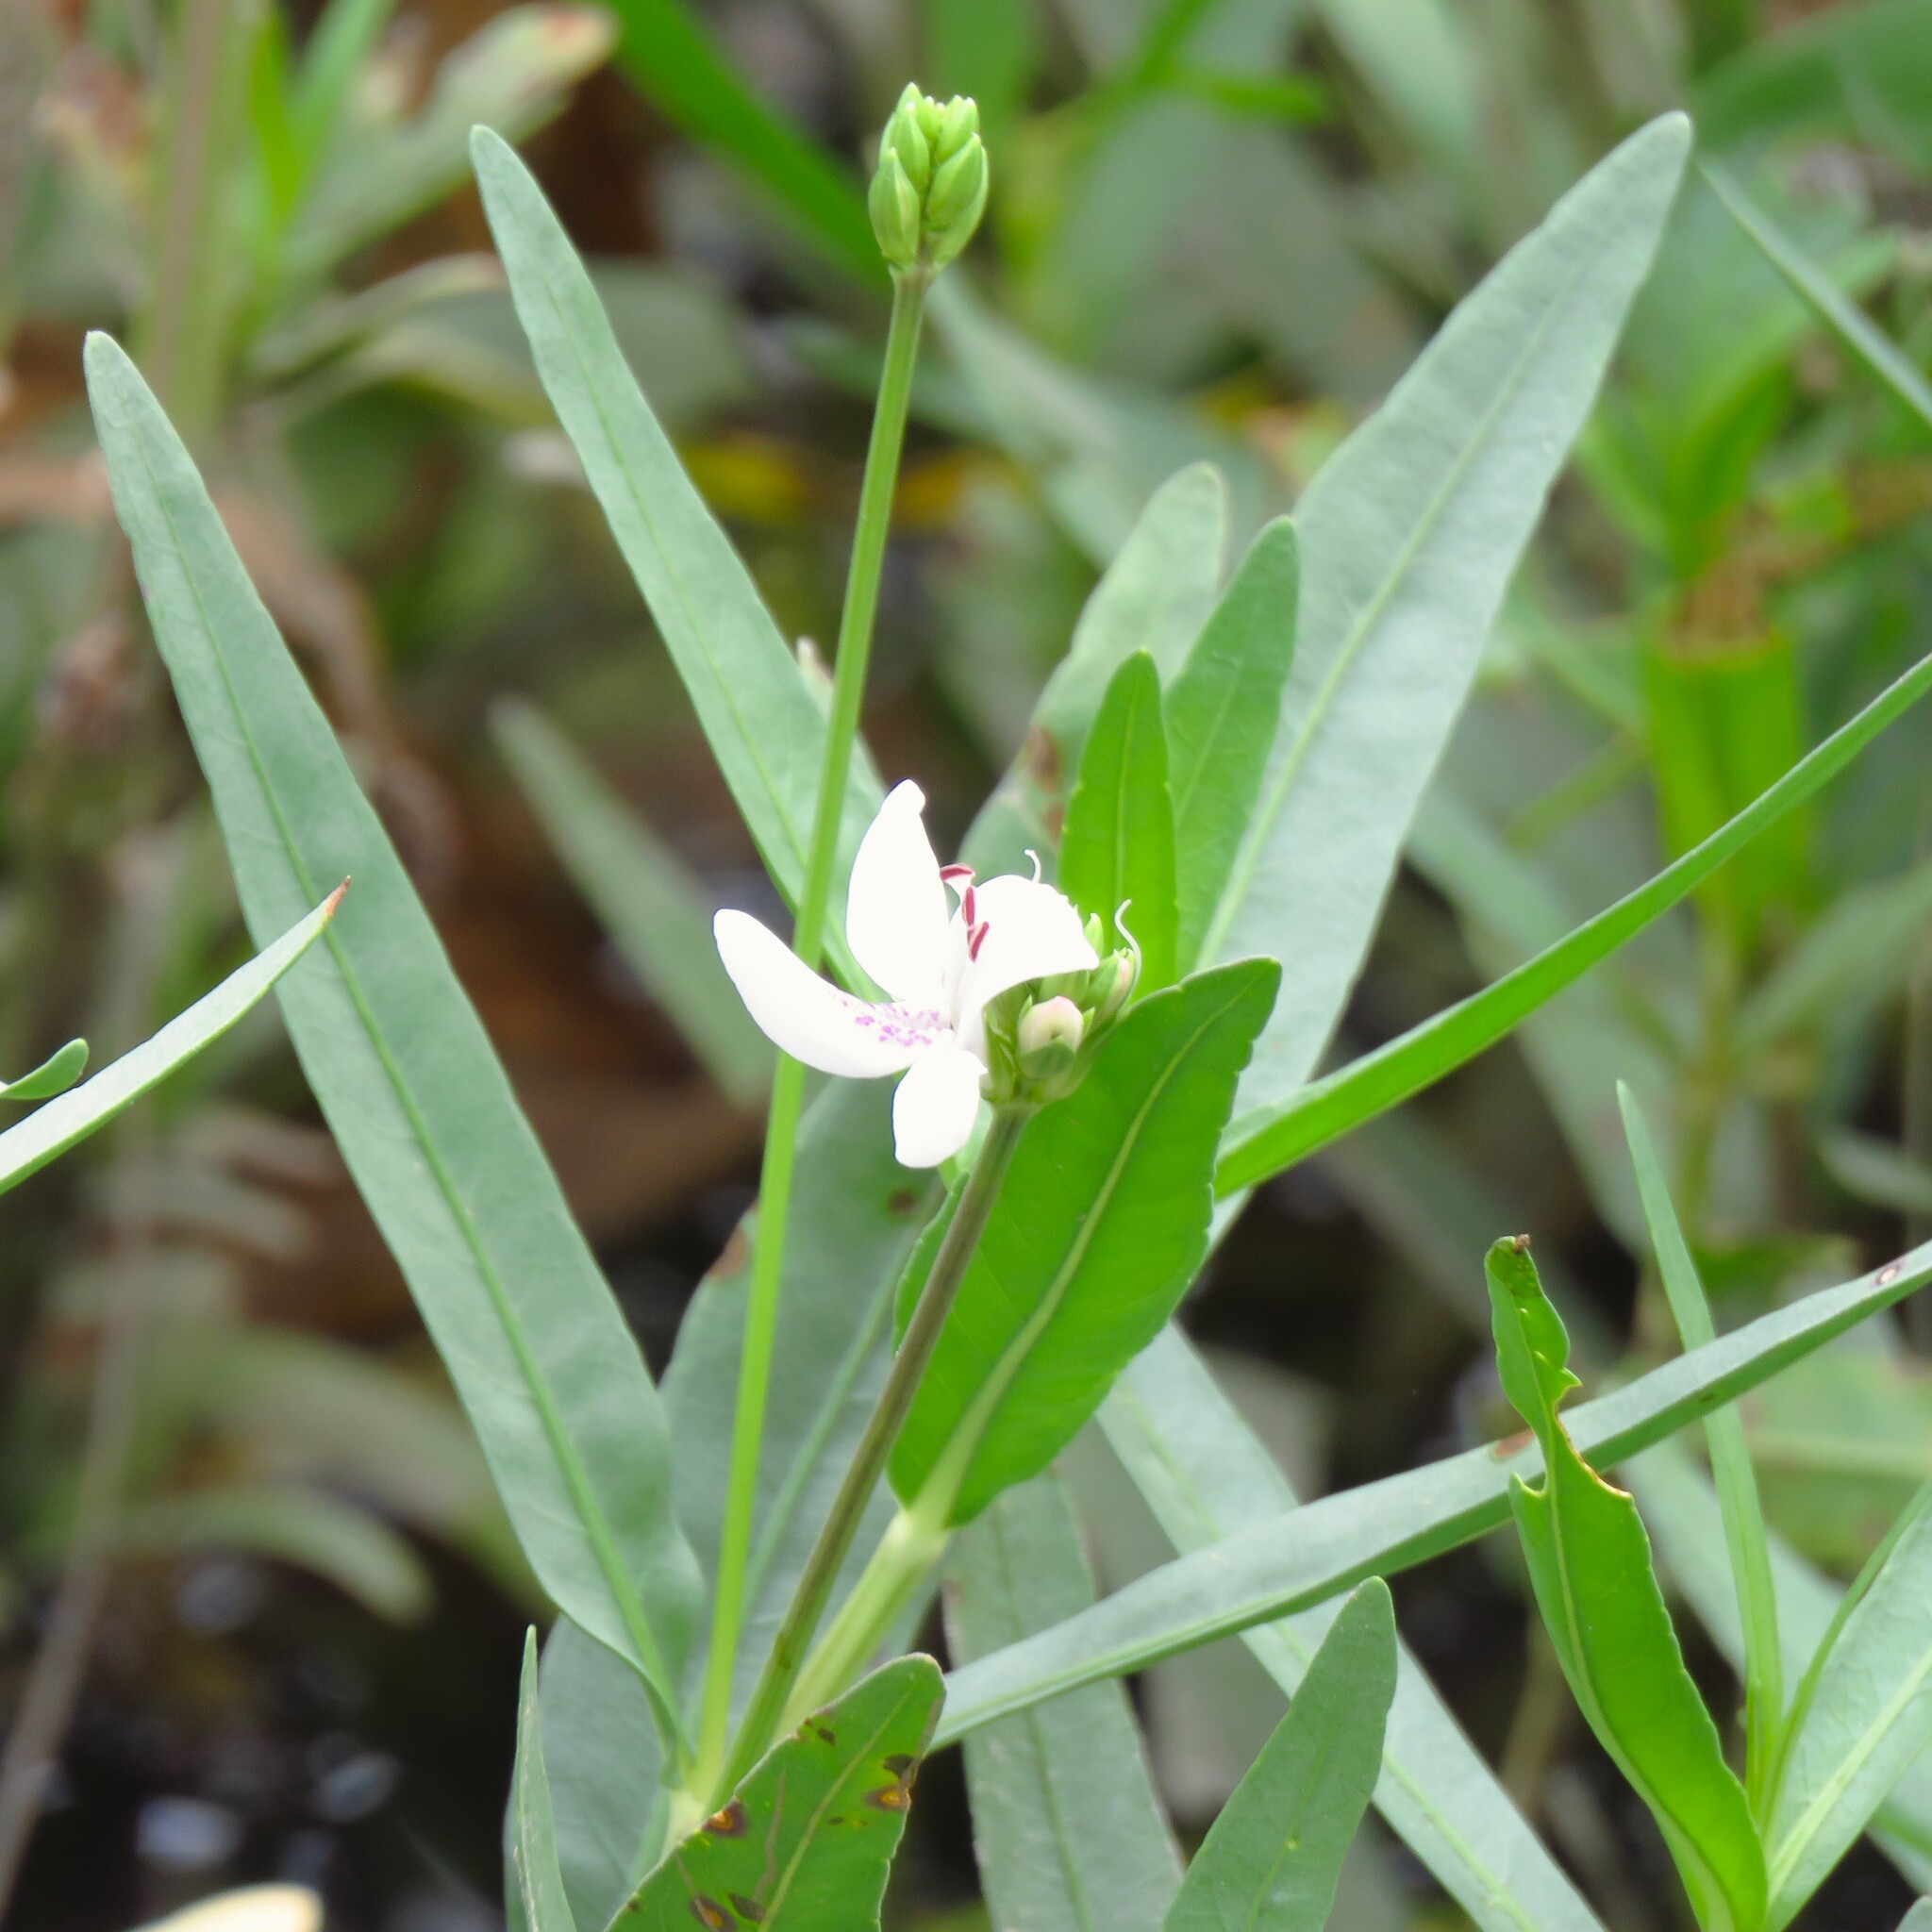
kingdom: Plantae
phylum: Tracheophyta
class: Magnoliopsida
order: Lamiales
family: Acanthaceae
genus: Dianthera
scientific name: Dianthera americana
